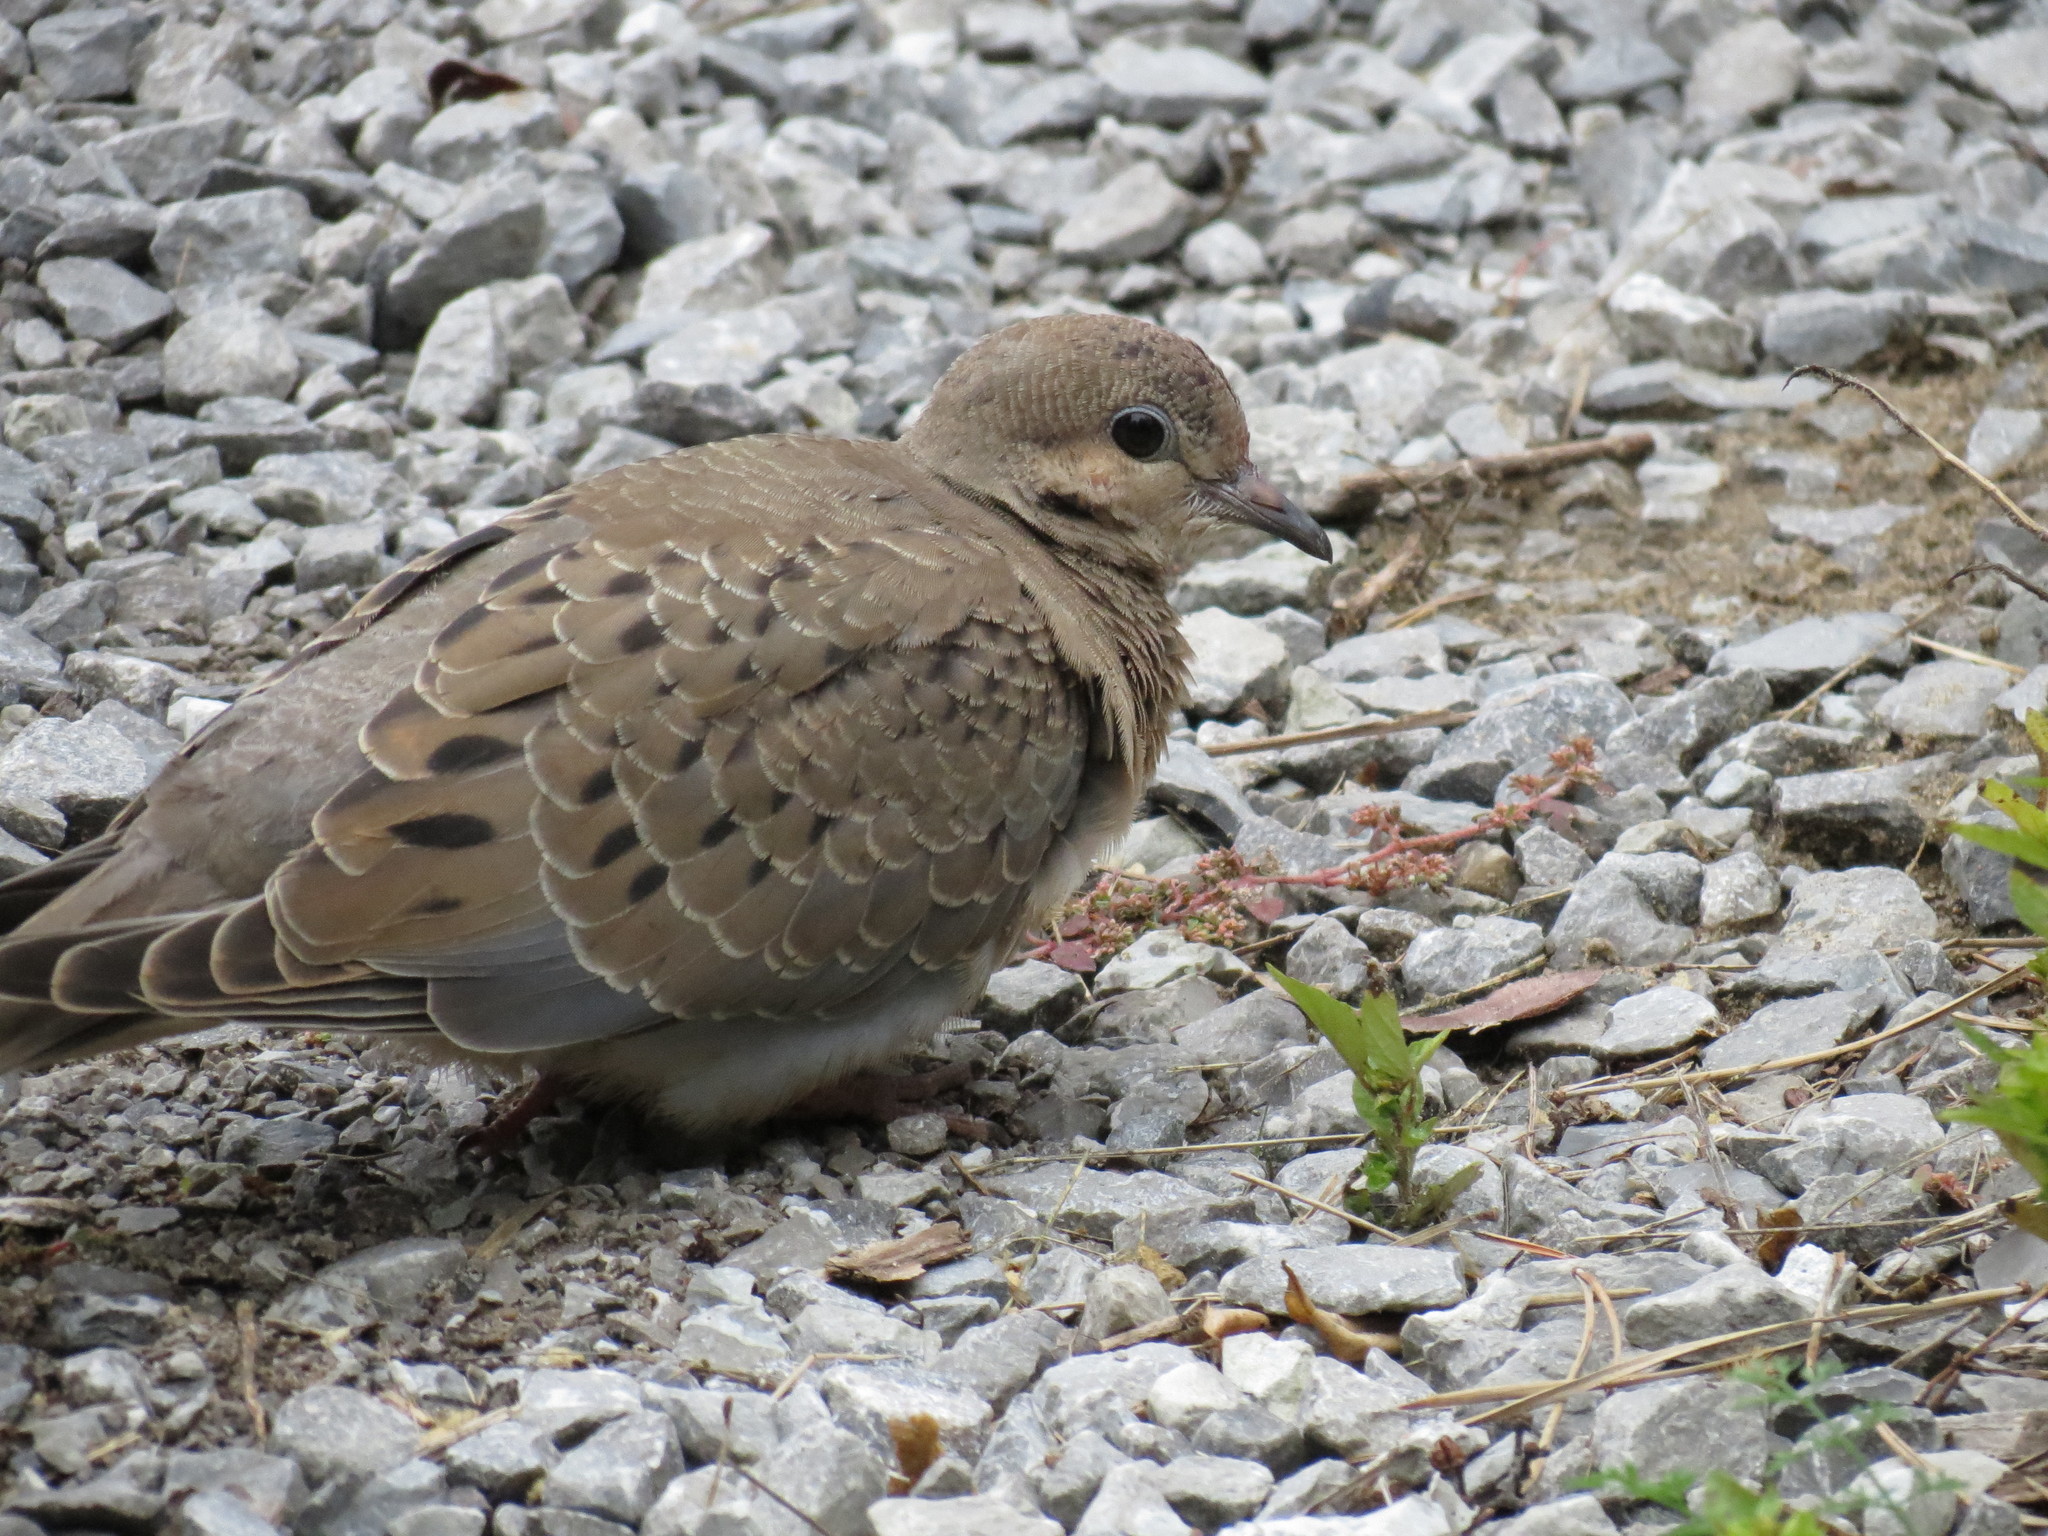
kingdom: Animalia
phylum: Chordata
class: Aves
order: Columbiformes
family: Columbidae
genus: Zenaida
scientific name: Zenaida macroura
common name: Mourning dove
